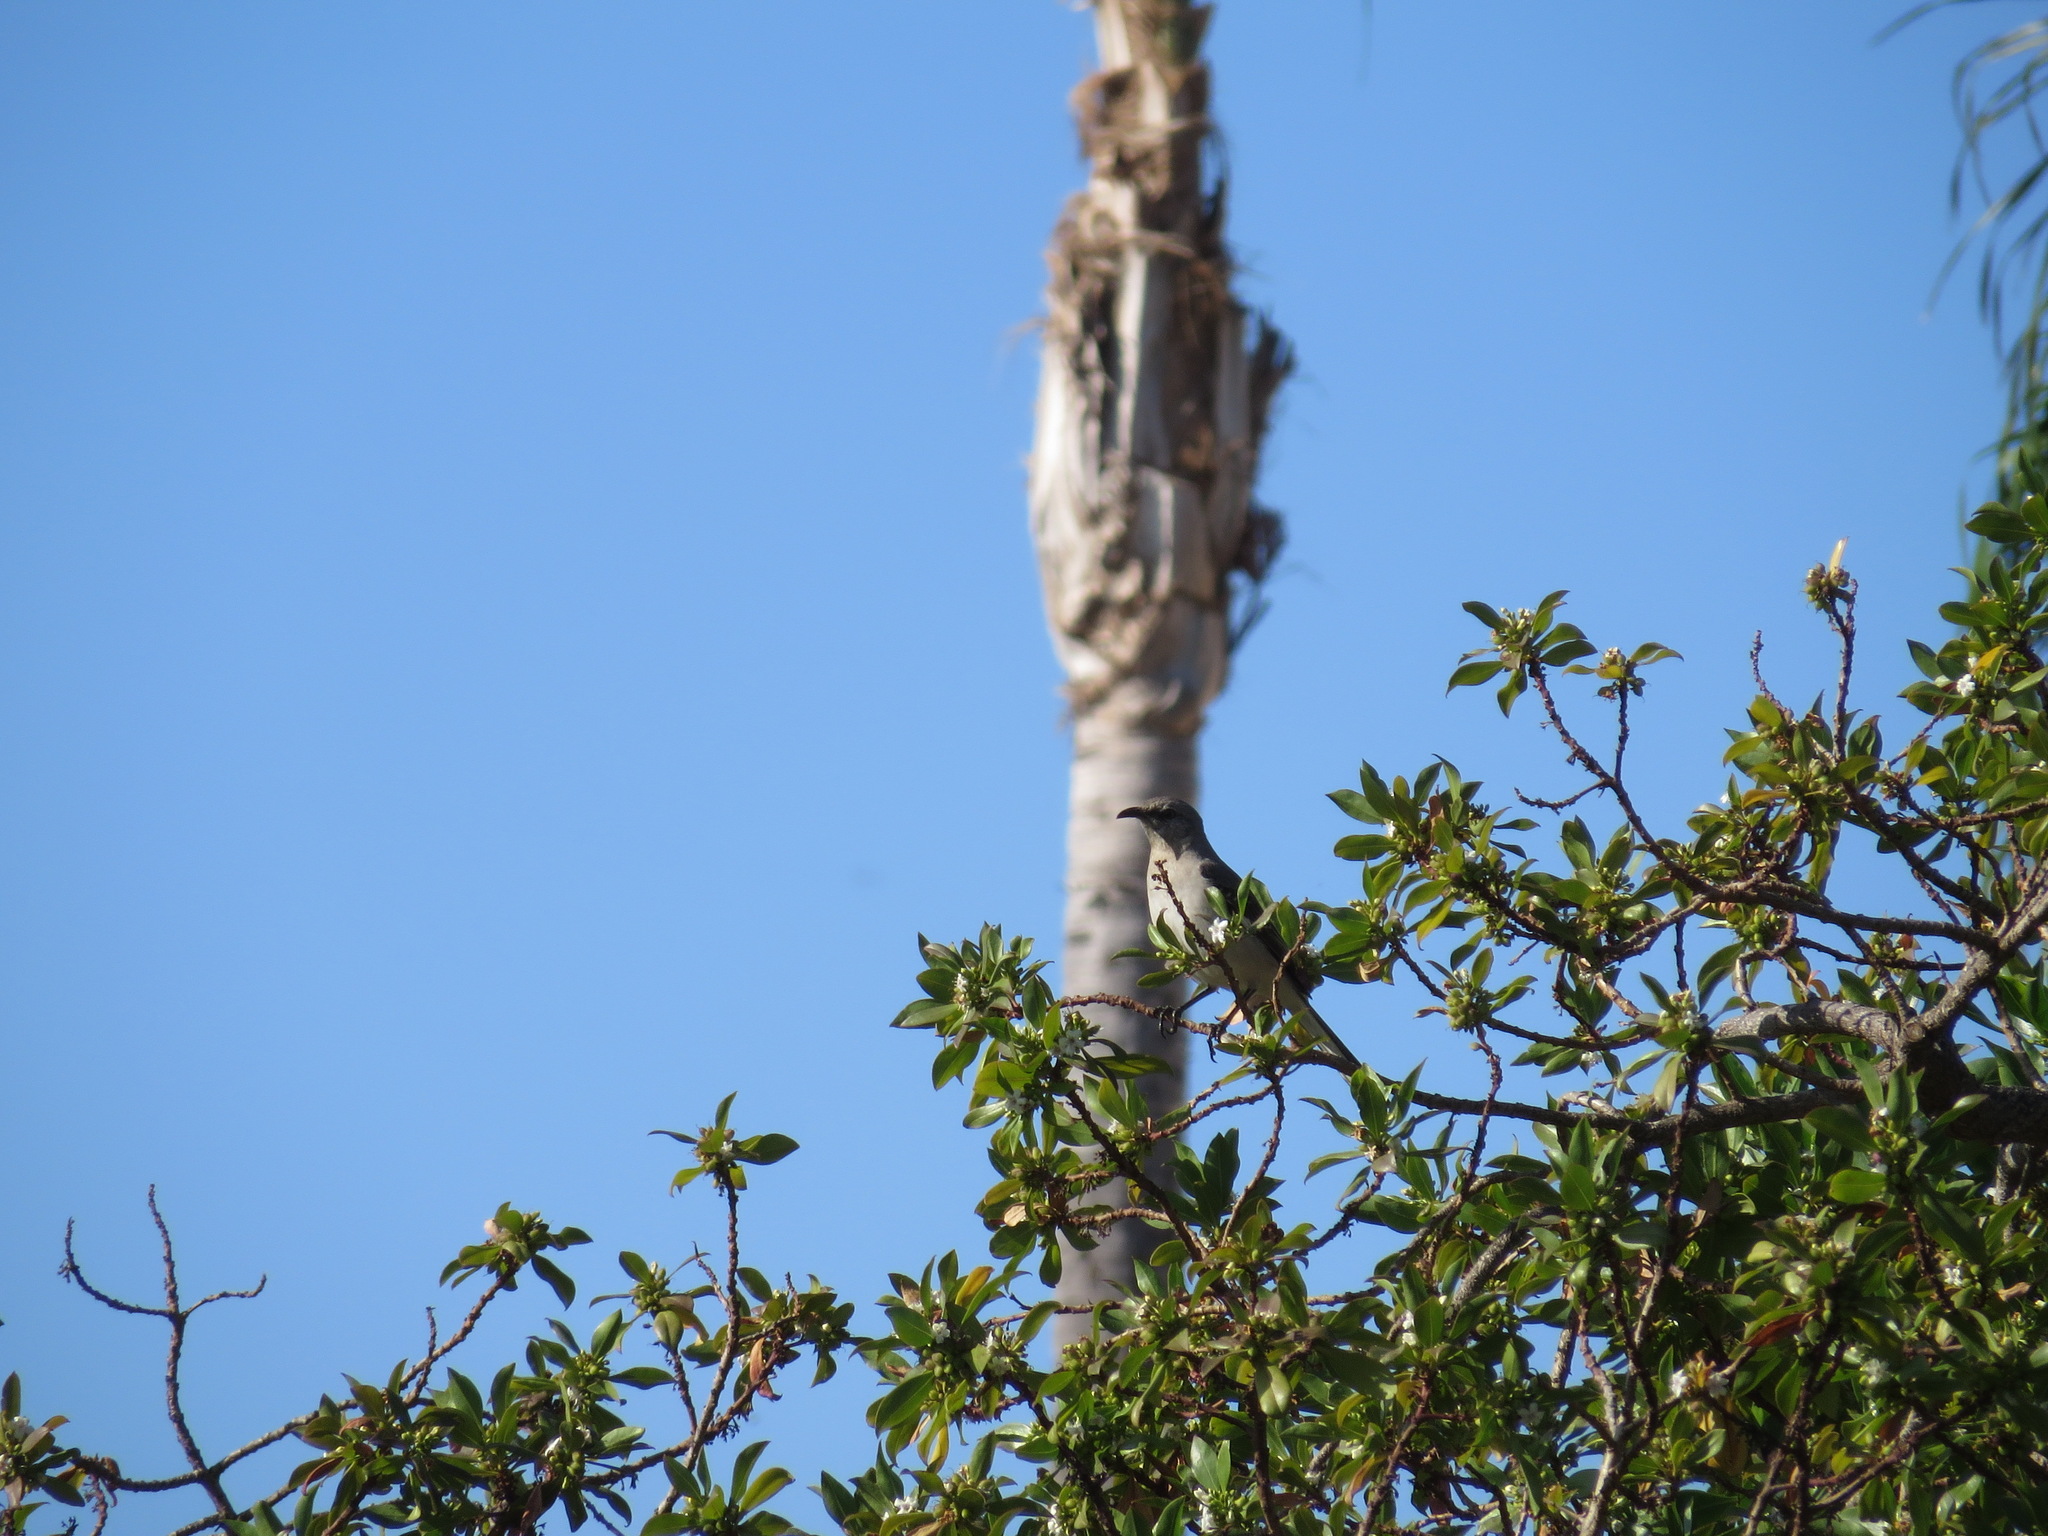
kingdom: Animalia
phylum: Chordata
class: Aves
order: Passeriformes
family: Mimidae
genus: Mimus
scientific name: Mimus polyglottos
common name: Northern mockingbird
